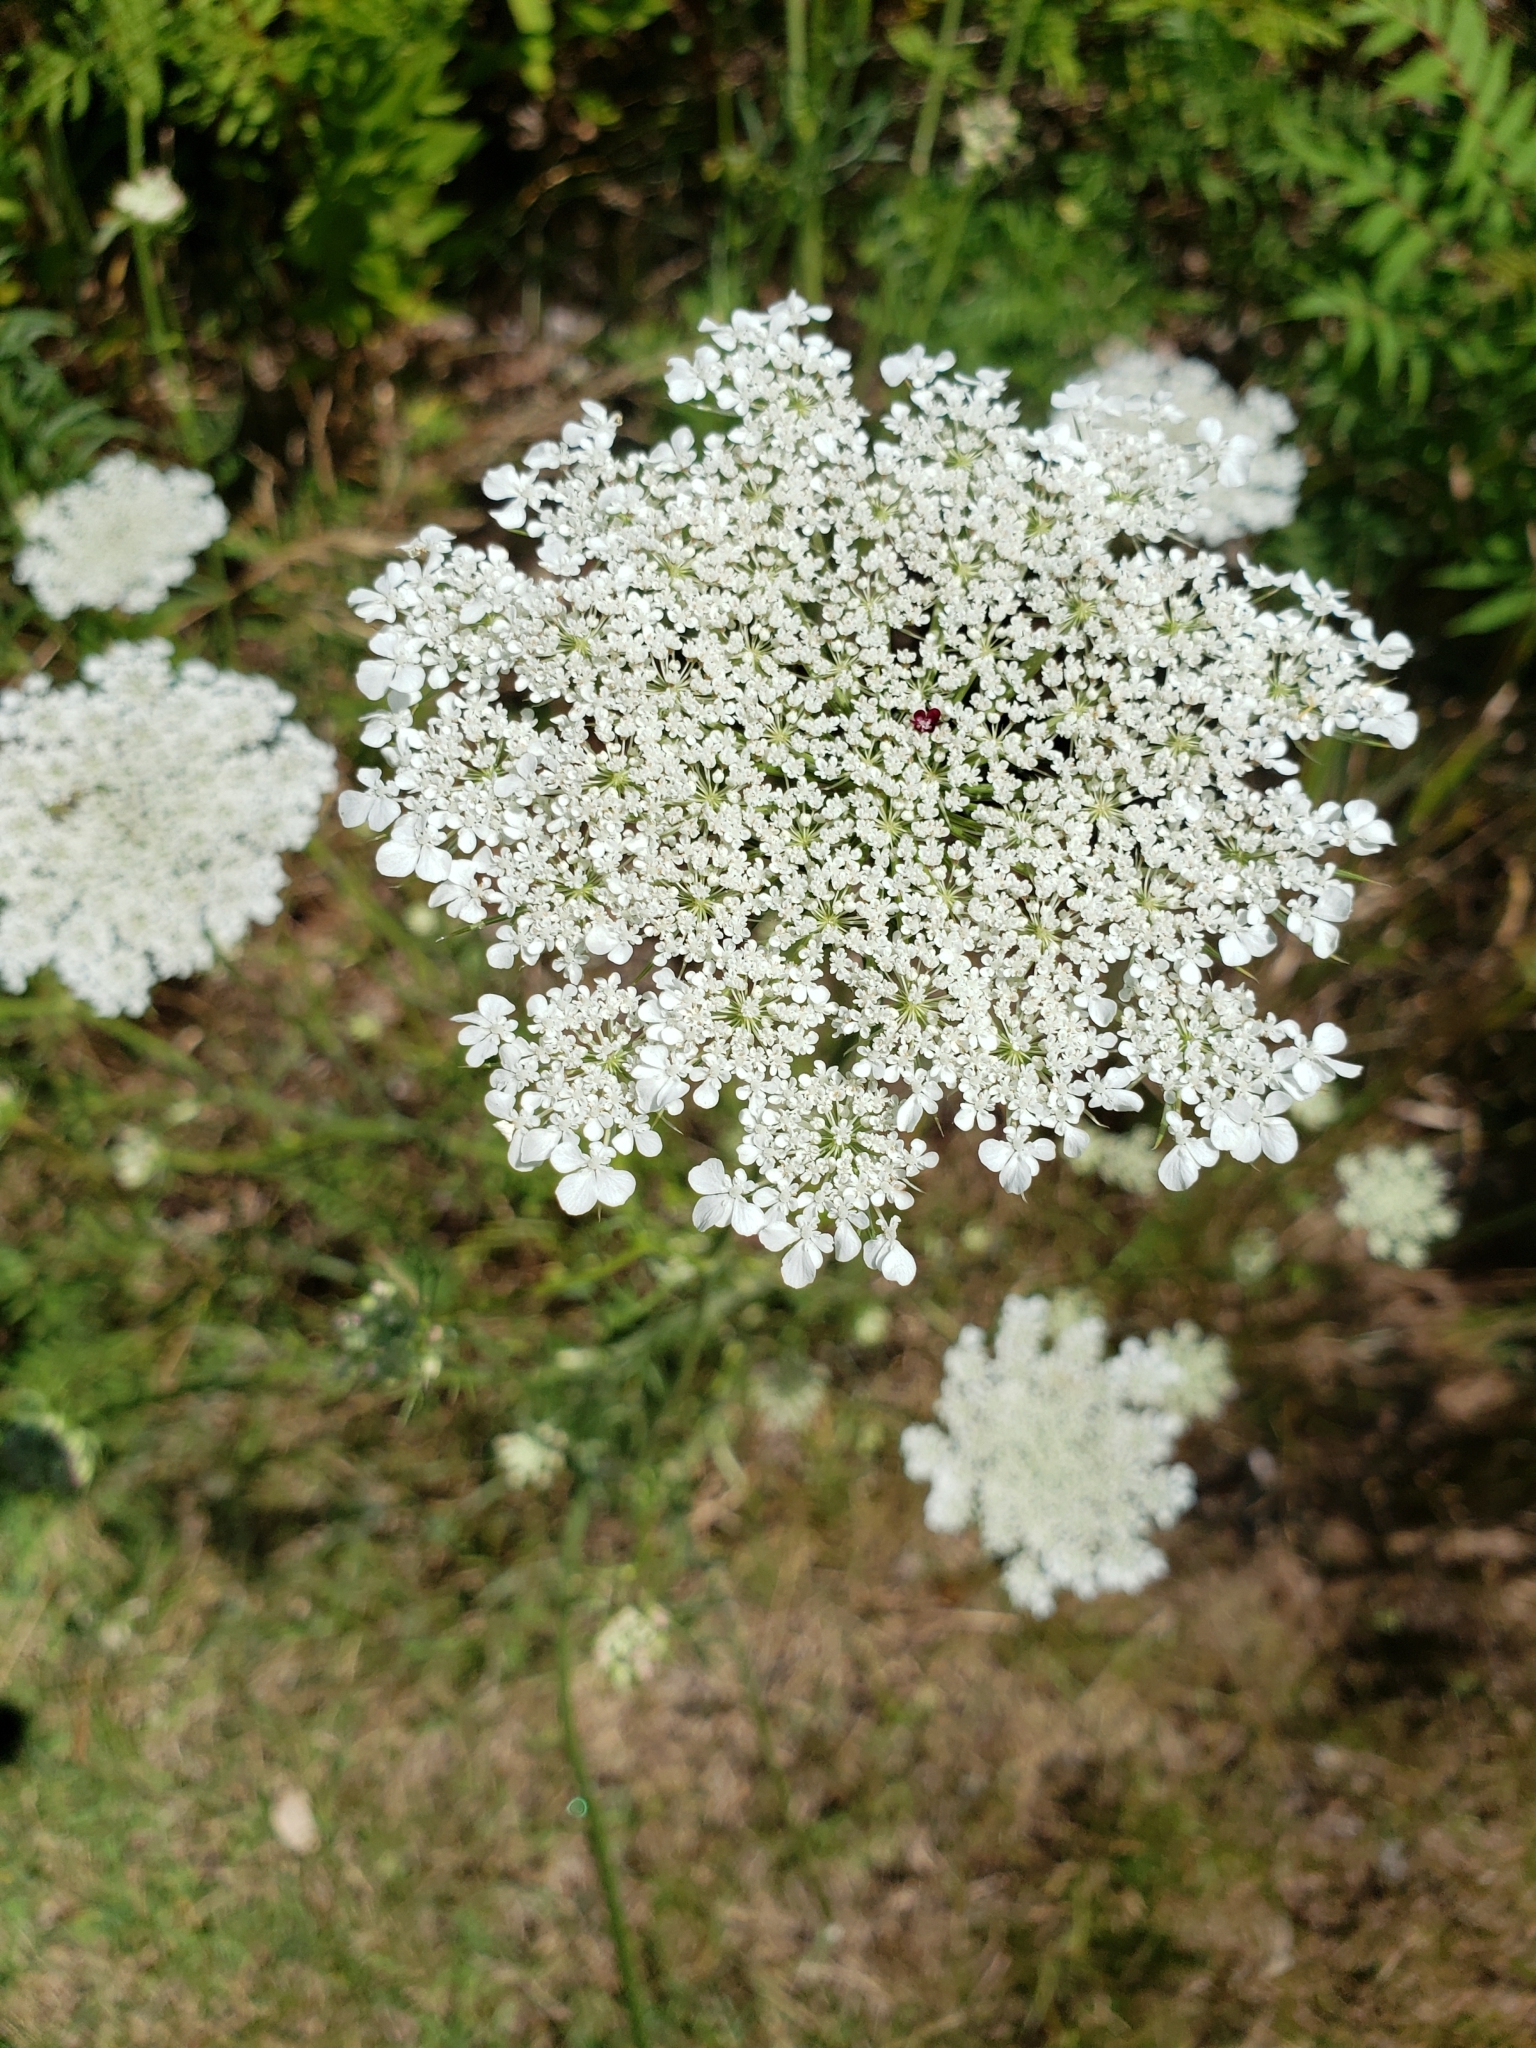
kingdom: Plantae
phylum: Tracheophyta
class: Magnoliopsida
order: Apiales
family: Apiaceae
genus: Daucus
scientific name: Daucus carota
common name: Wild carrot
